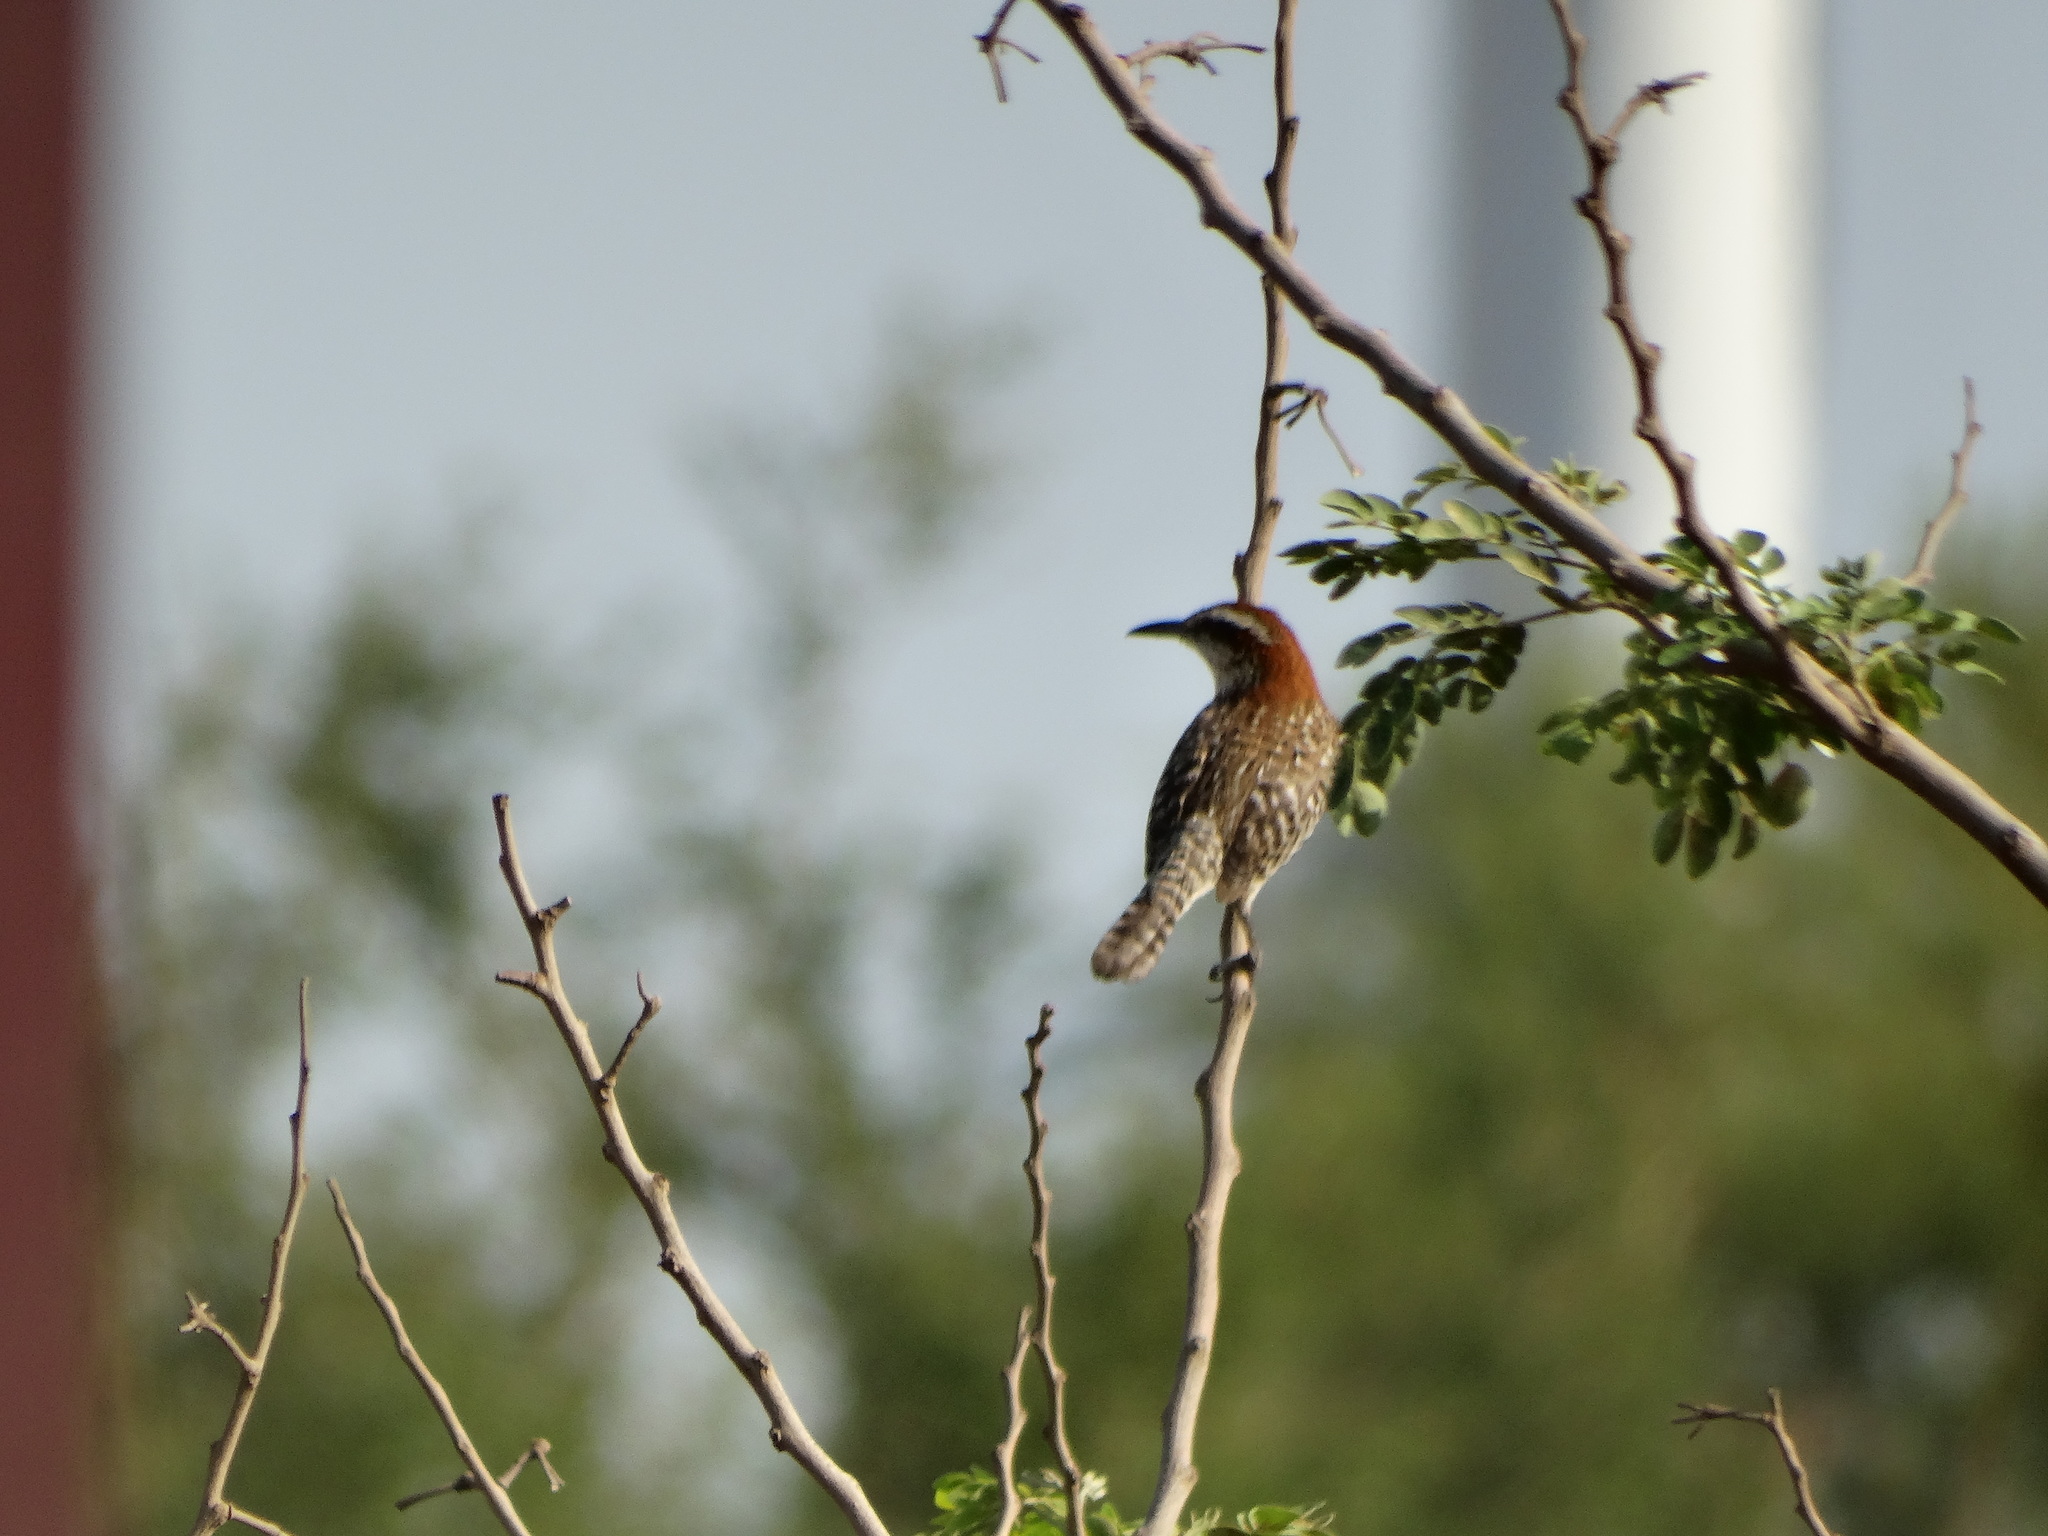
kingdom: Animalia
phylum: Chordata
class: Aves
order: Passeriformes
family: Troglodytidae
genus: Campylorhynchus
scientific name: Campylorhynchus rufinucha
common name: Rufous-naped wren
